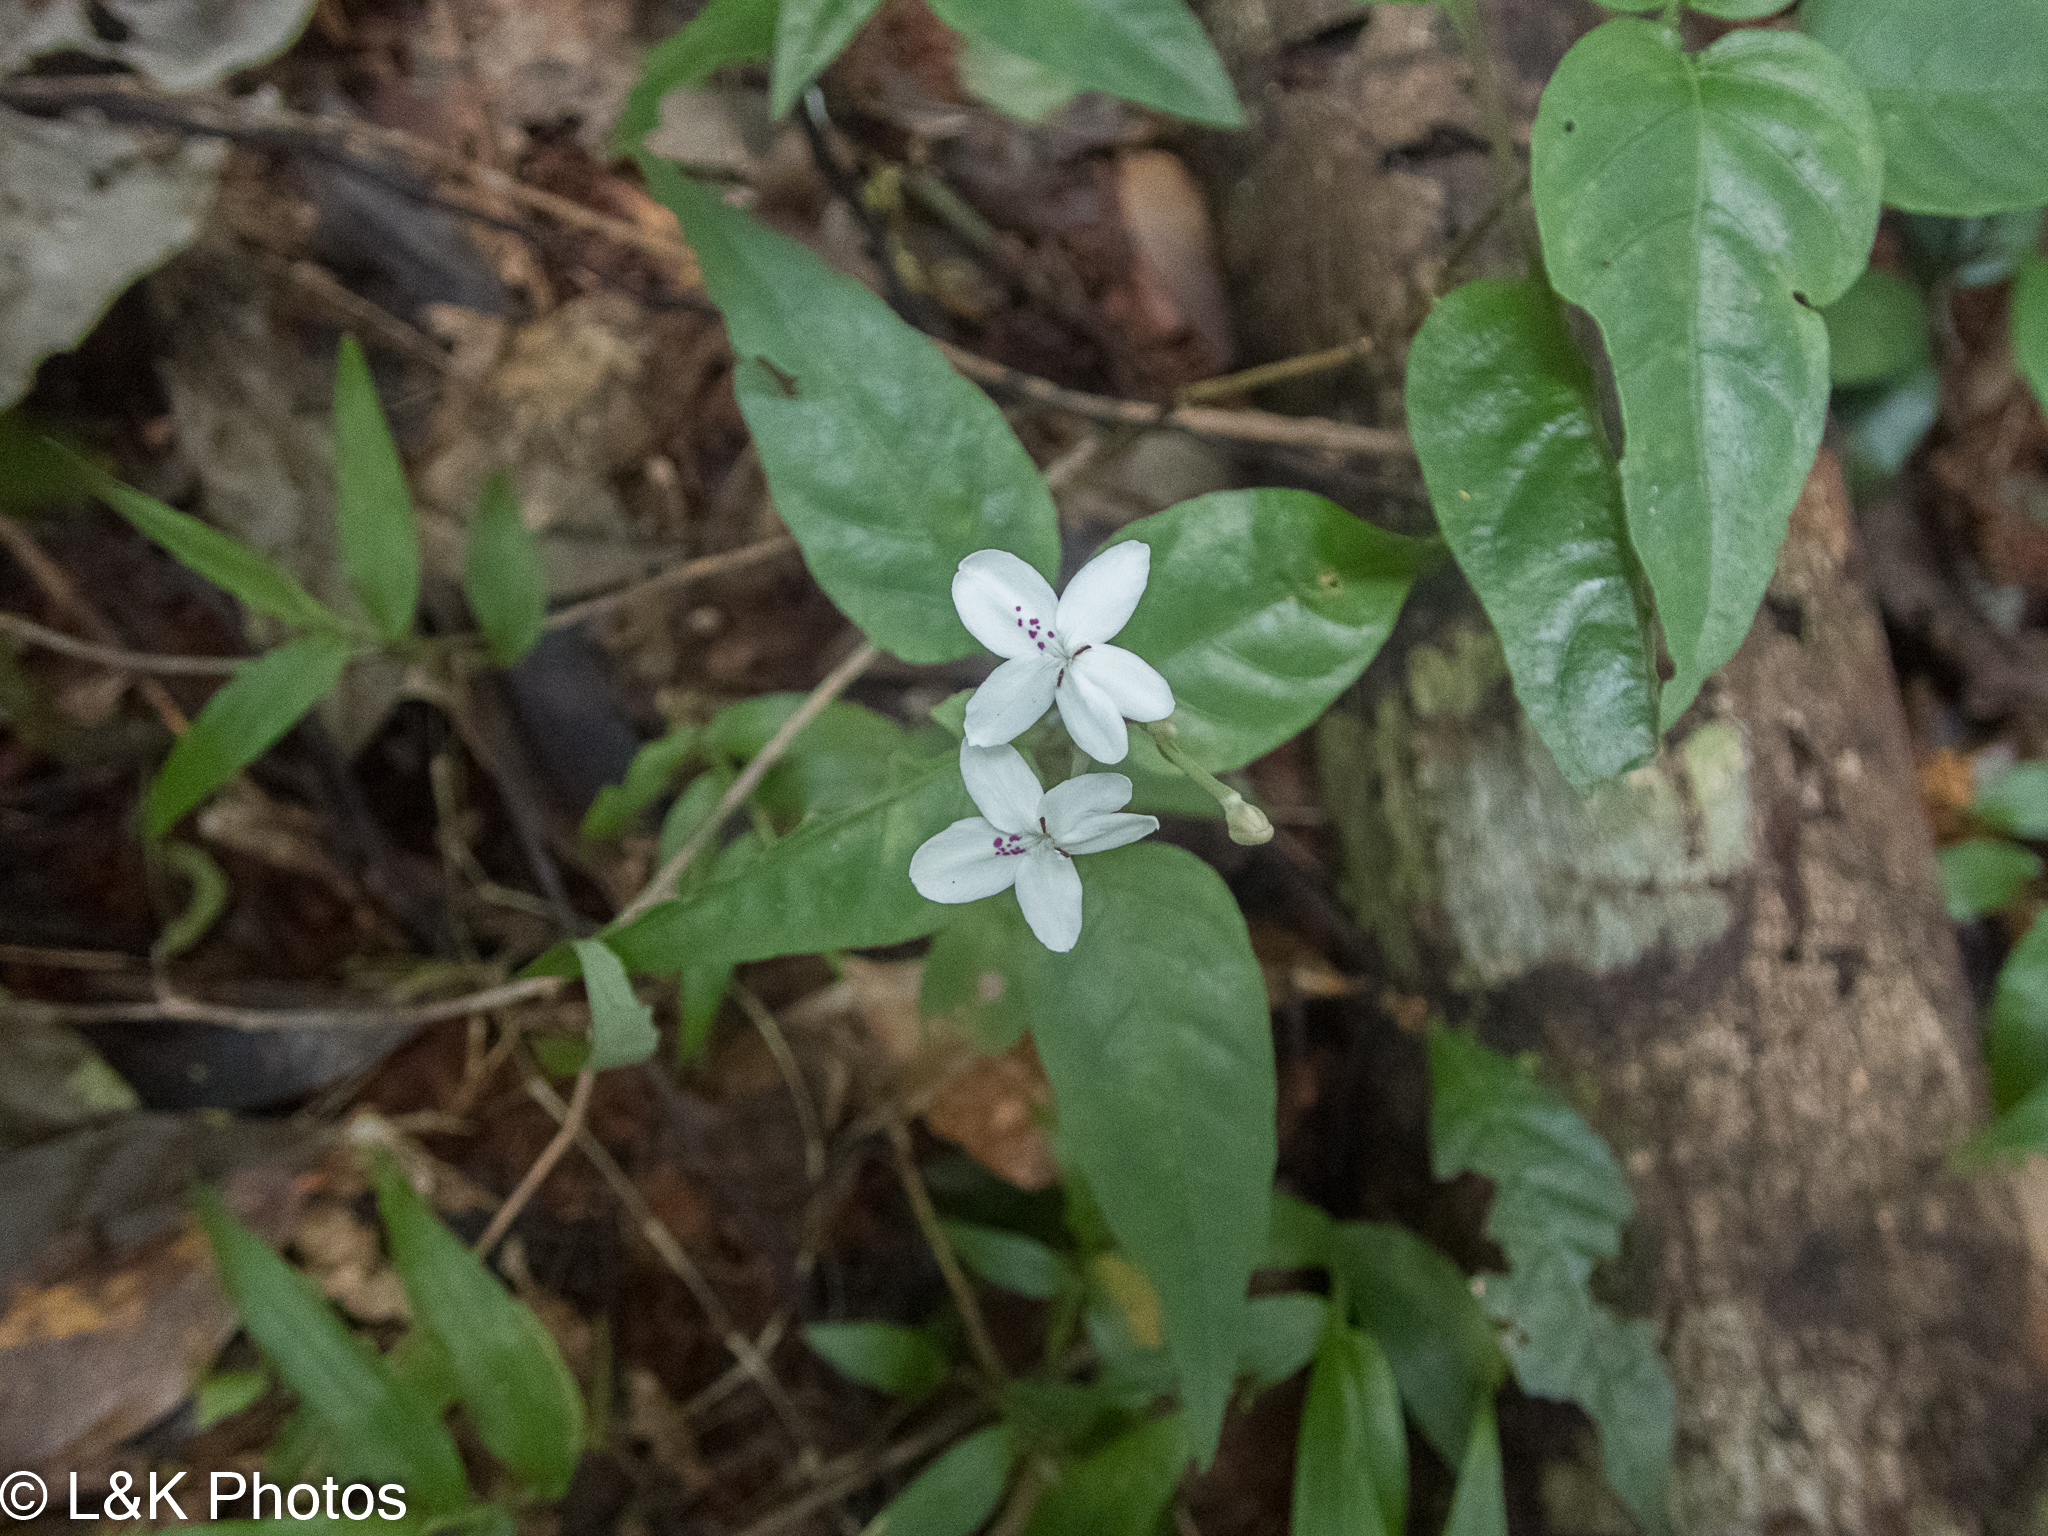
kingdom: Plantae
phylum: Tracheophyta
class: Magnoliopsida
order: Lamiales
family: Acanthaceae
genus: Pseuderanthemum
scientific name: Pseuderanthemum variabile
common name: Night and afternoon
